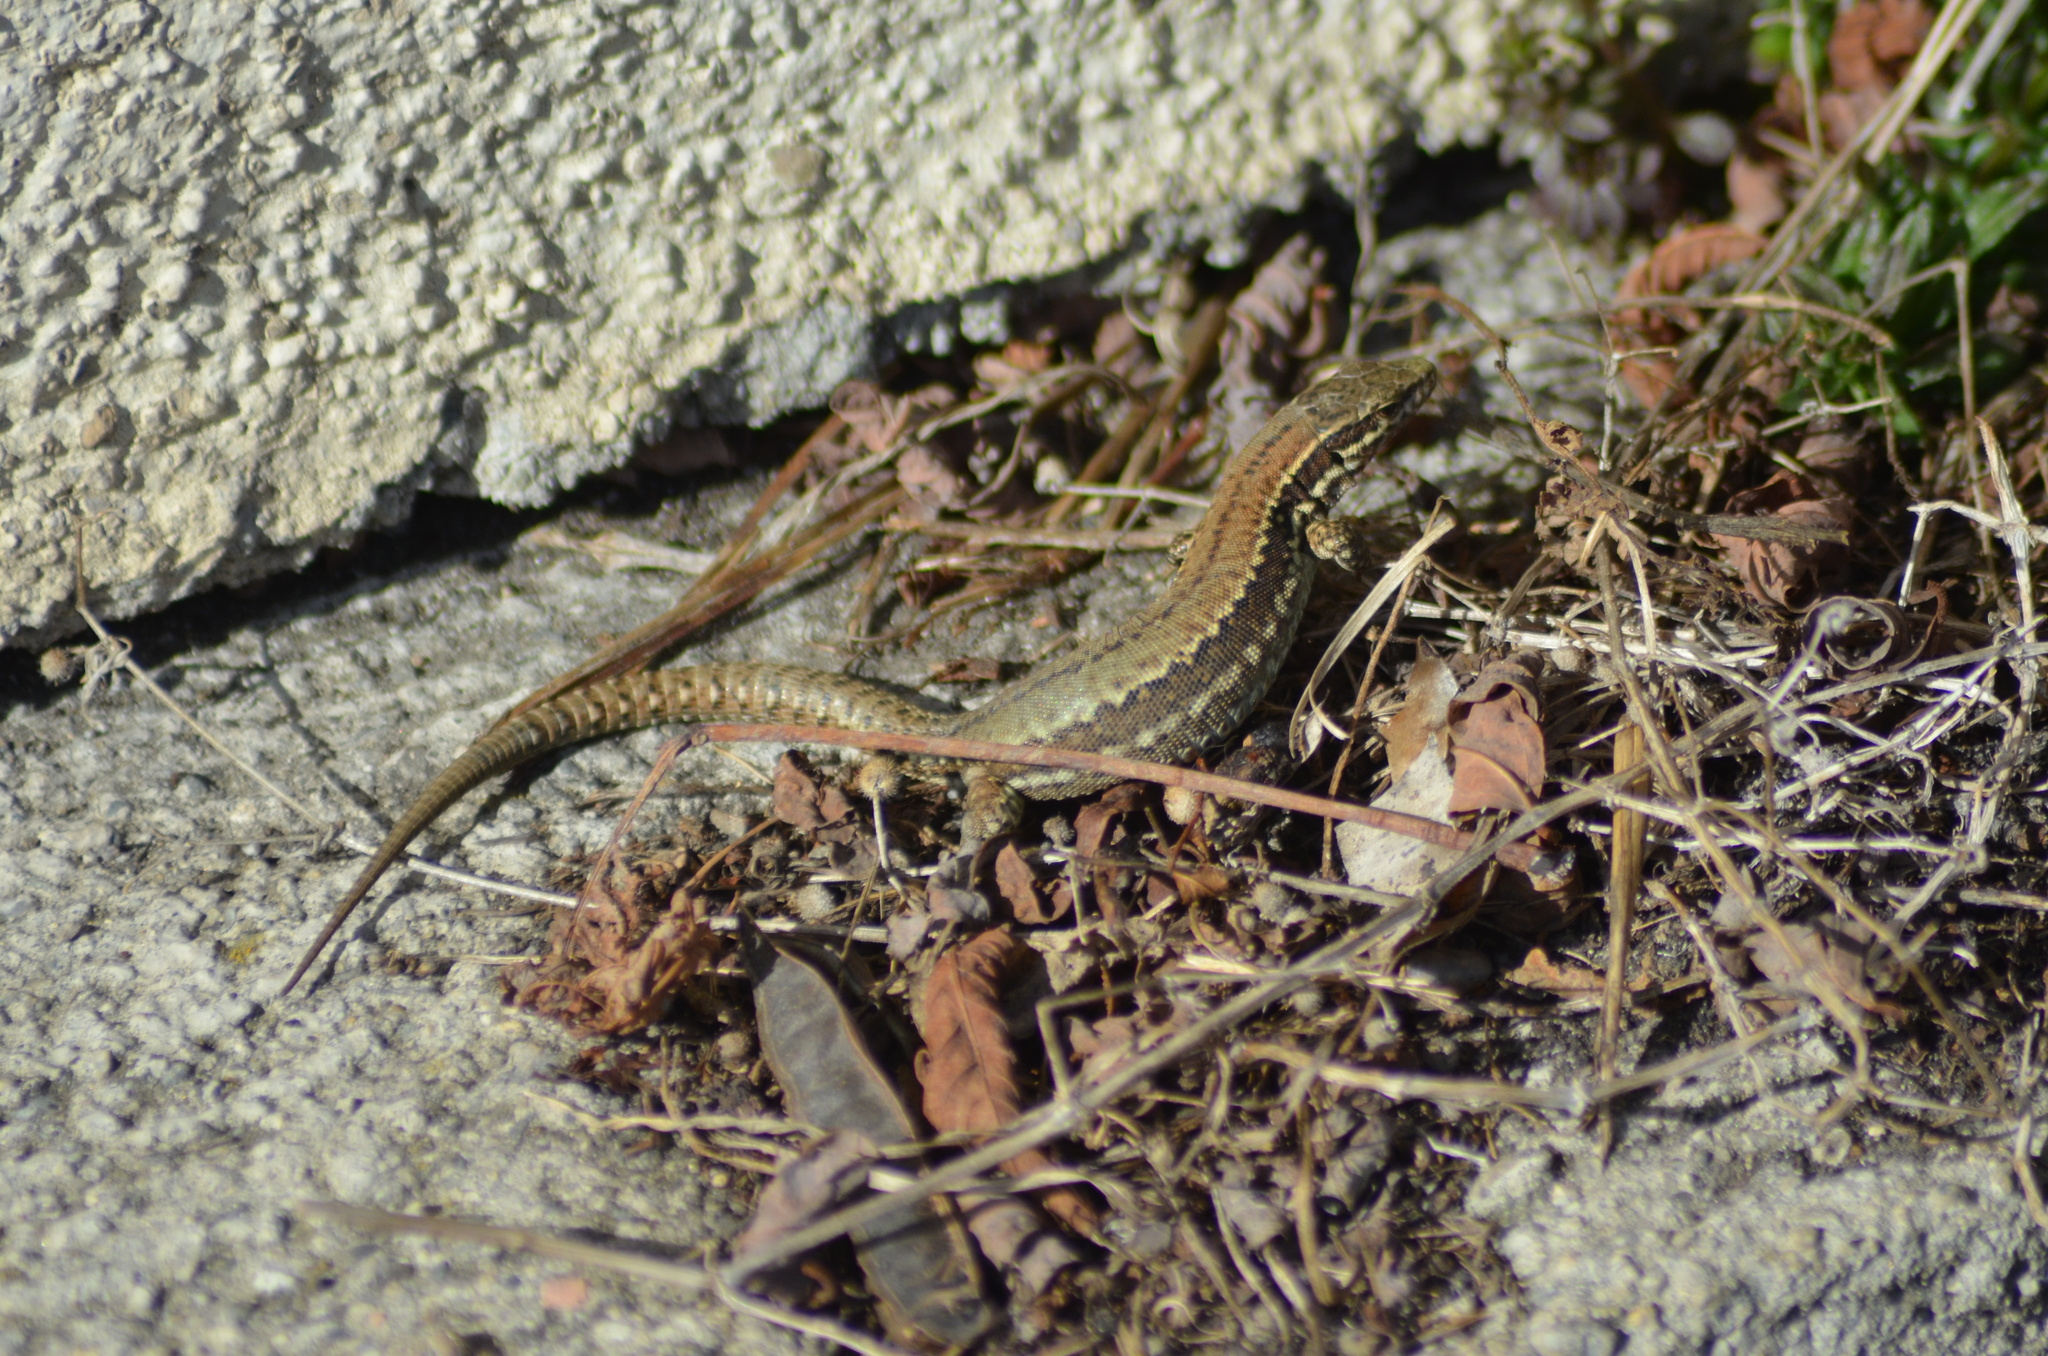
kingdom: Animalia
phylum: Chordata
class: Squamata
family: Lacertidae
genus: Podarcis
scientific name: Podarcis muralis
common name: Common wall lizard
